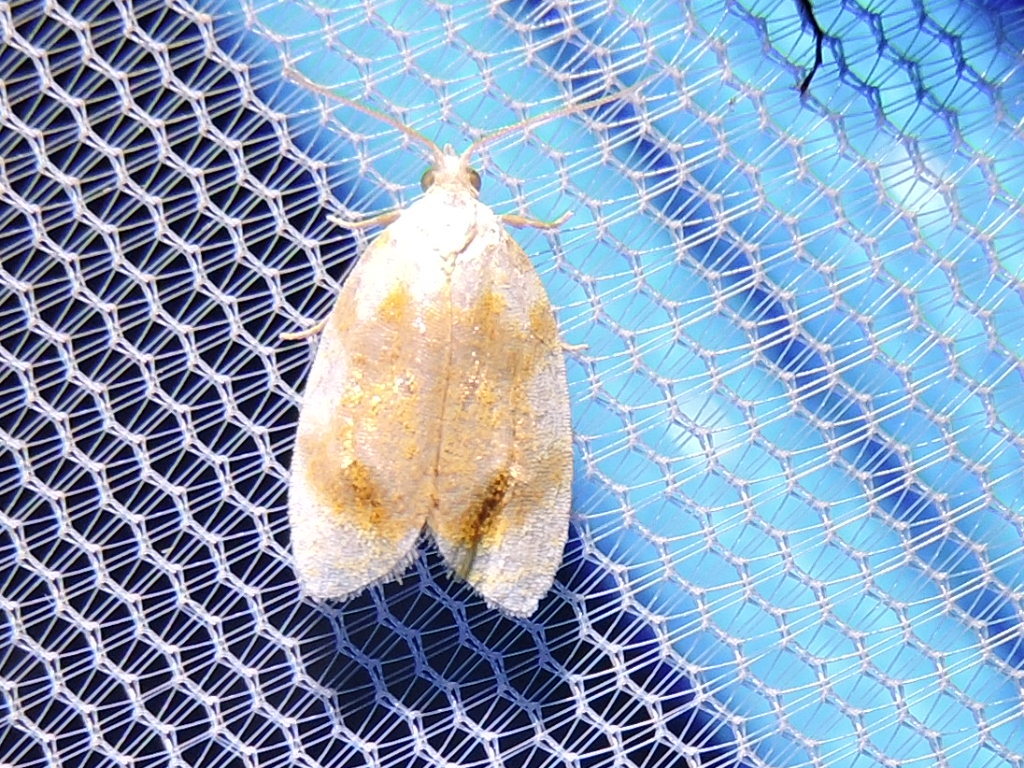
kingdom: Animalia
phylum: Arthropoda
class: Insecta
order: Lepidoptera
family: Tortricidae
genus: Acleris
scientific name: Acleris semipurpurana
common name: Oak leaftier moth
